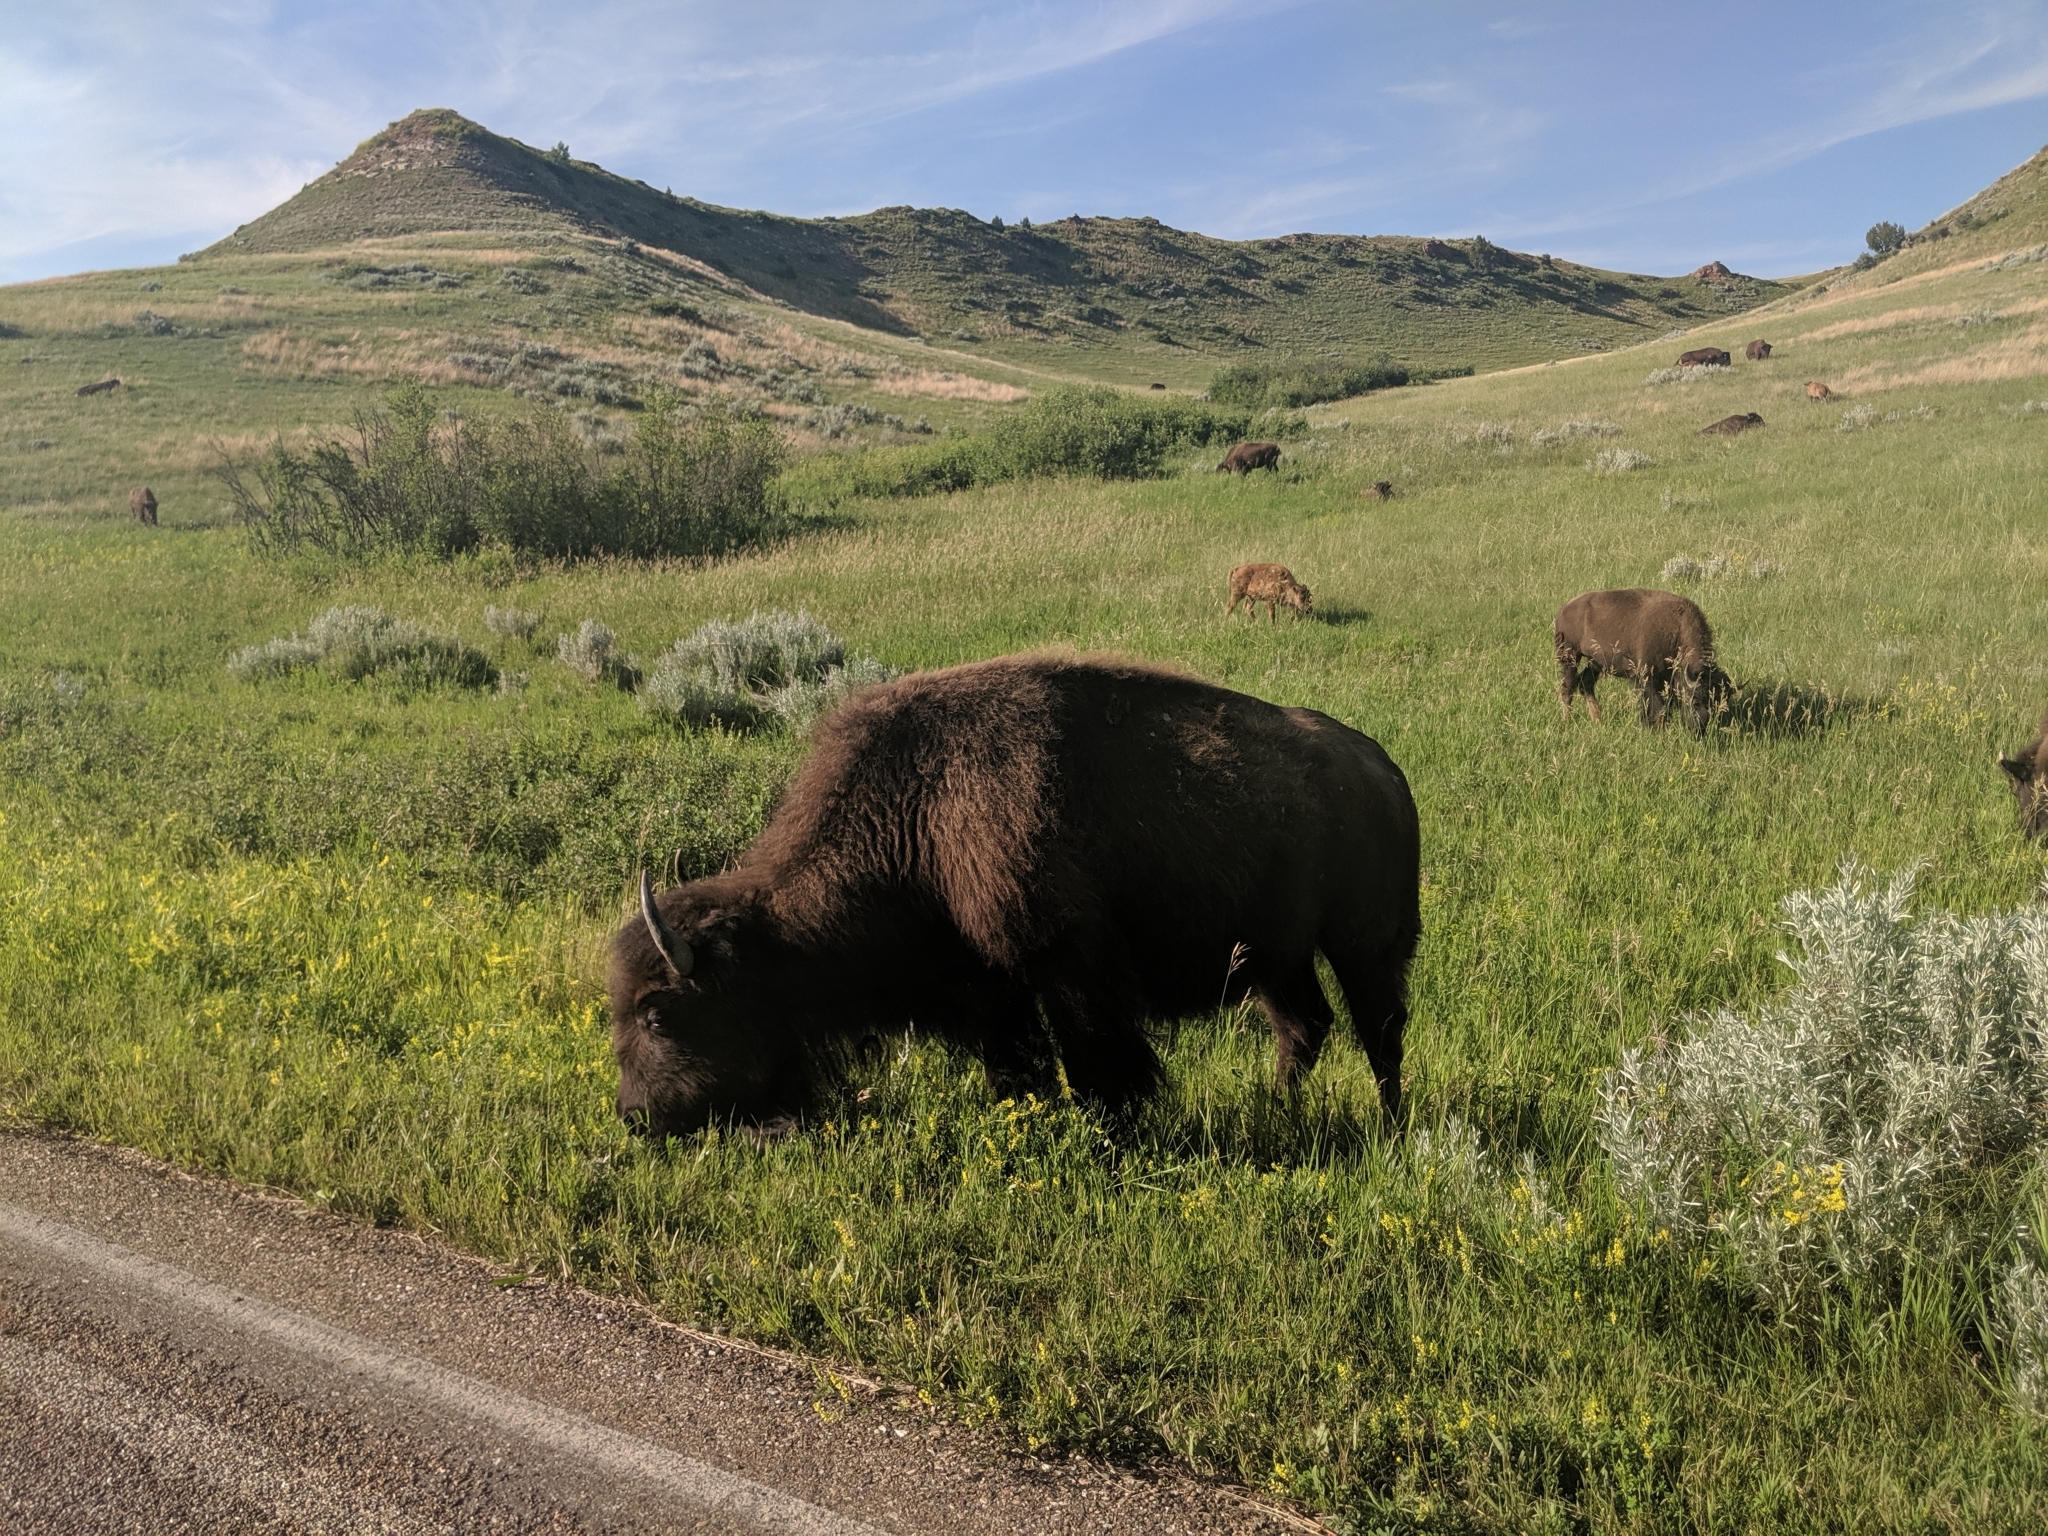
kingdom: Animalia
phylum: Chordata
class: Mammalia
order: Artiodactyla
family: Bovidae
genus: Bison
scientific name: Bison bison
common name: American bison
